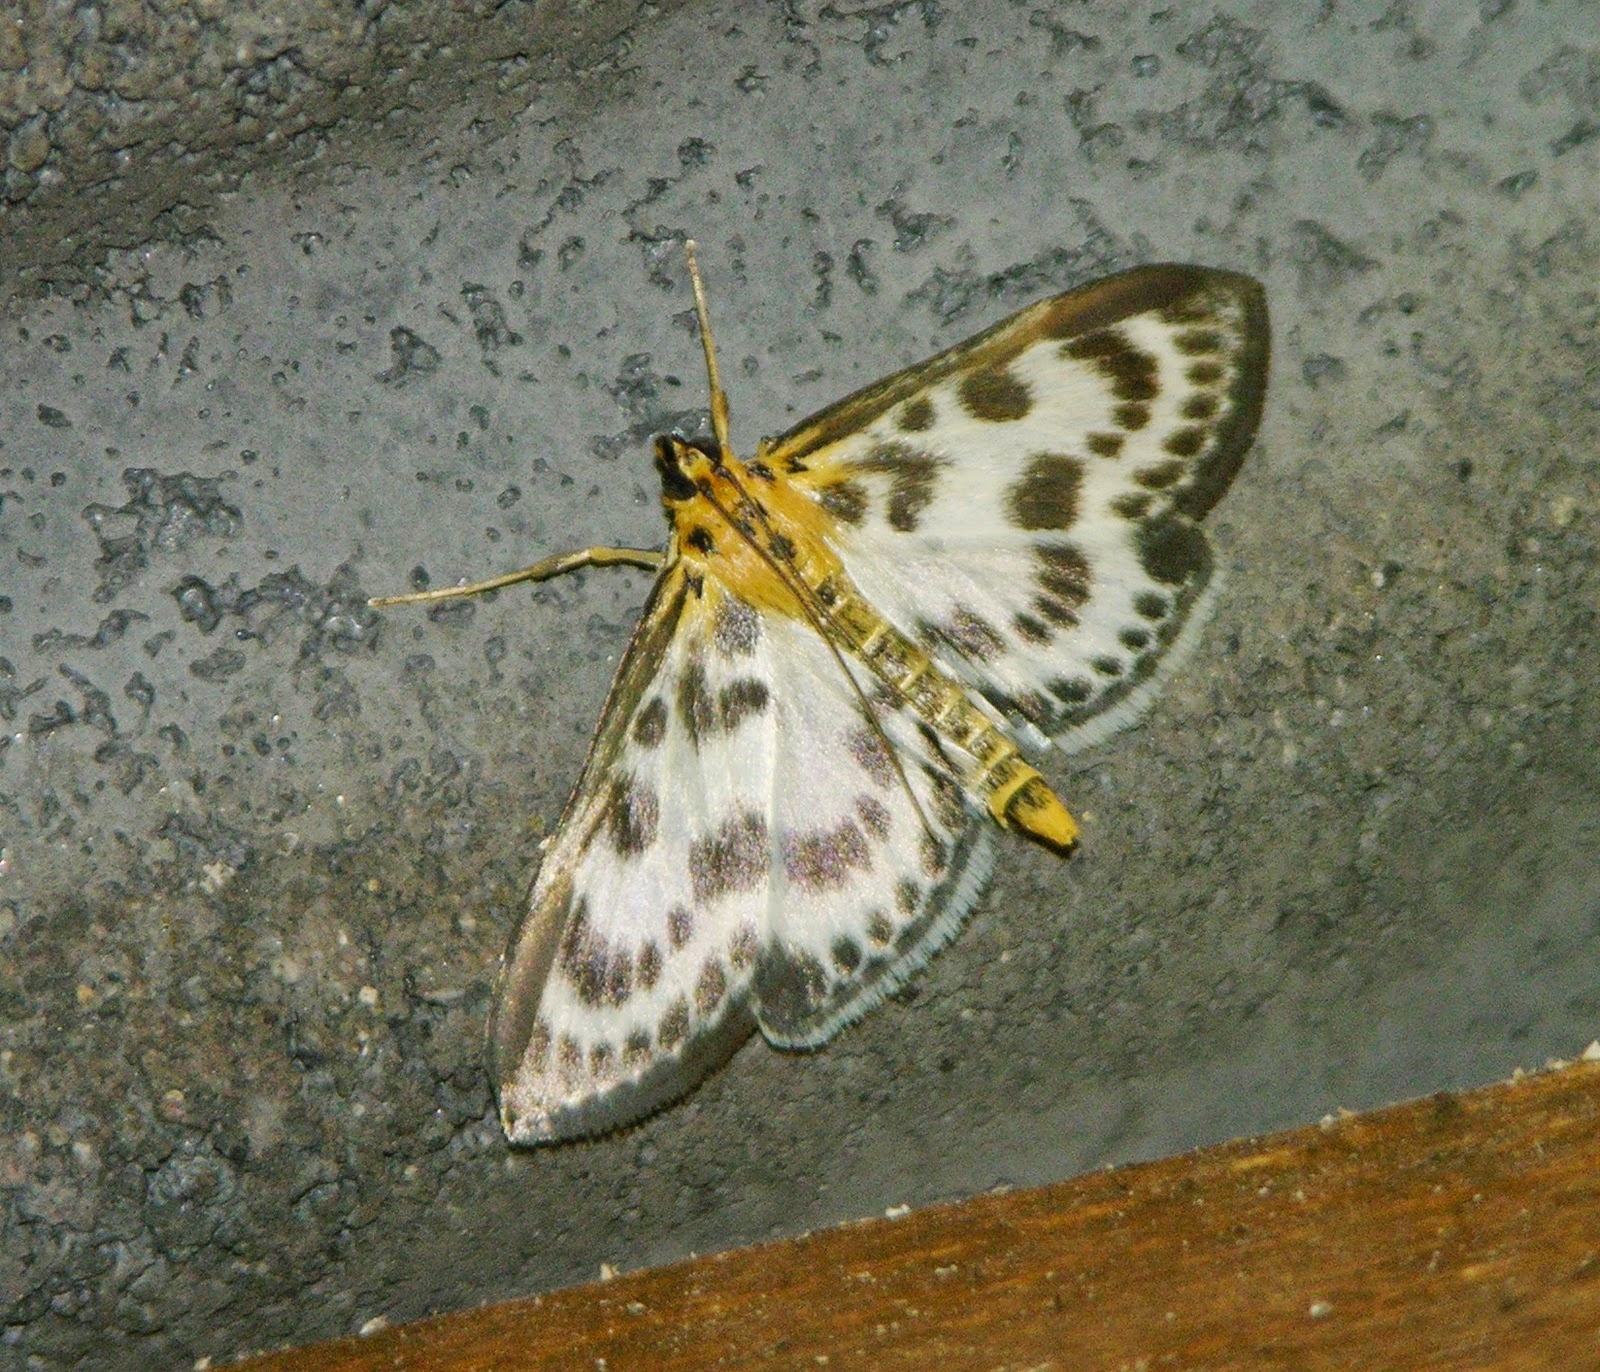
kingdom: Animalia
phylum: Arthropoda
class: Insecta
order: Lepidoptera
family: Crambidae
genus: Anania
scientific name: Anania hortulata
